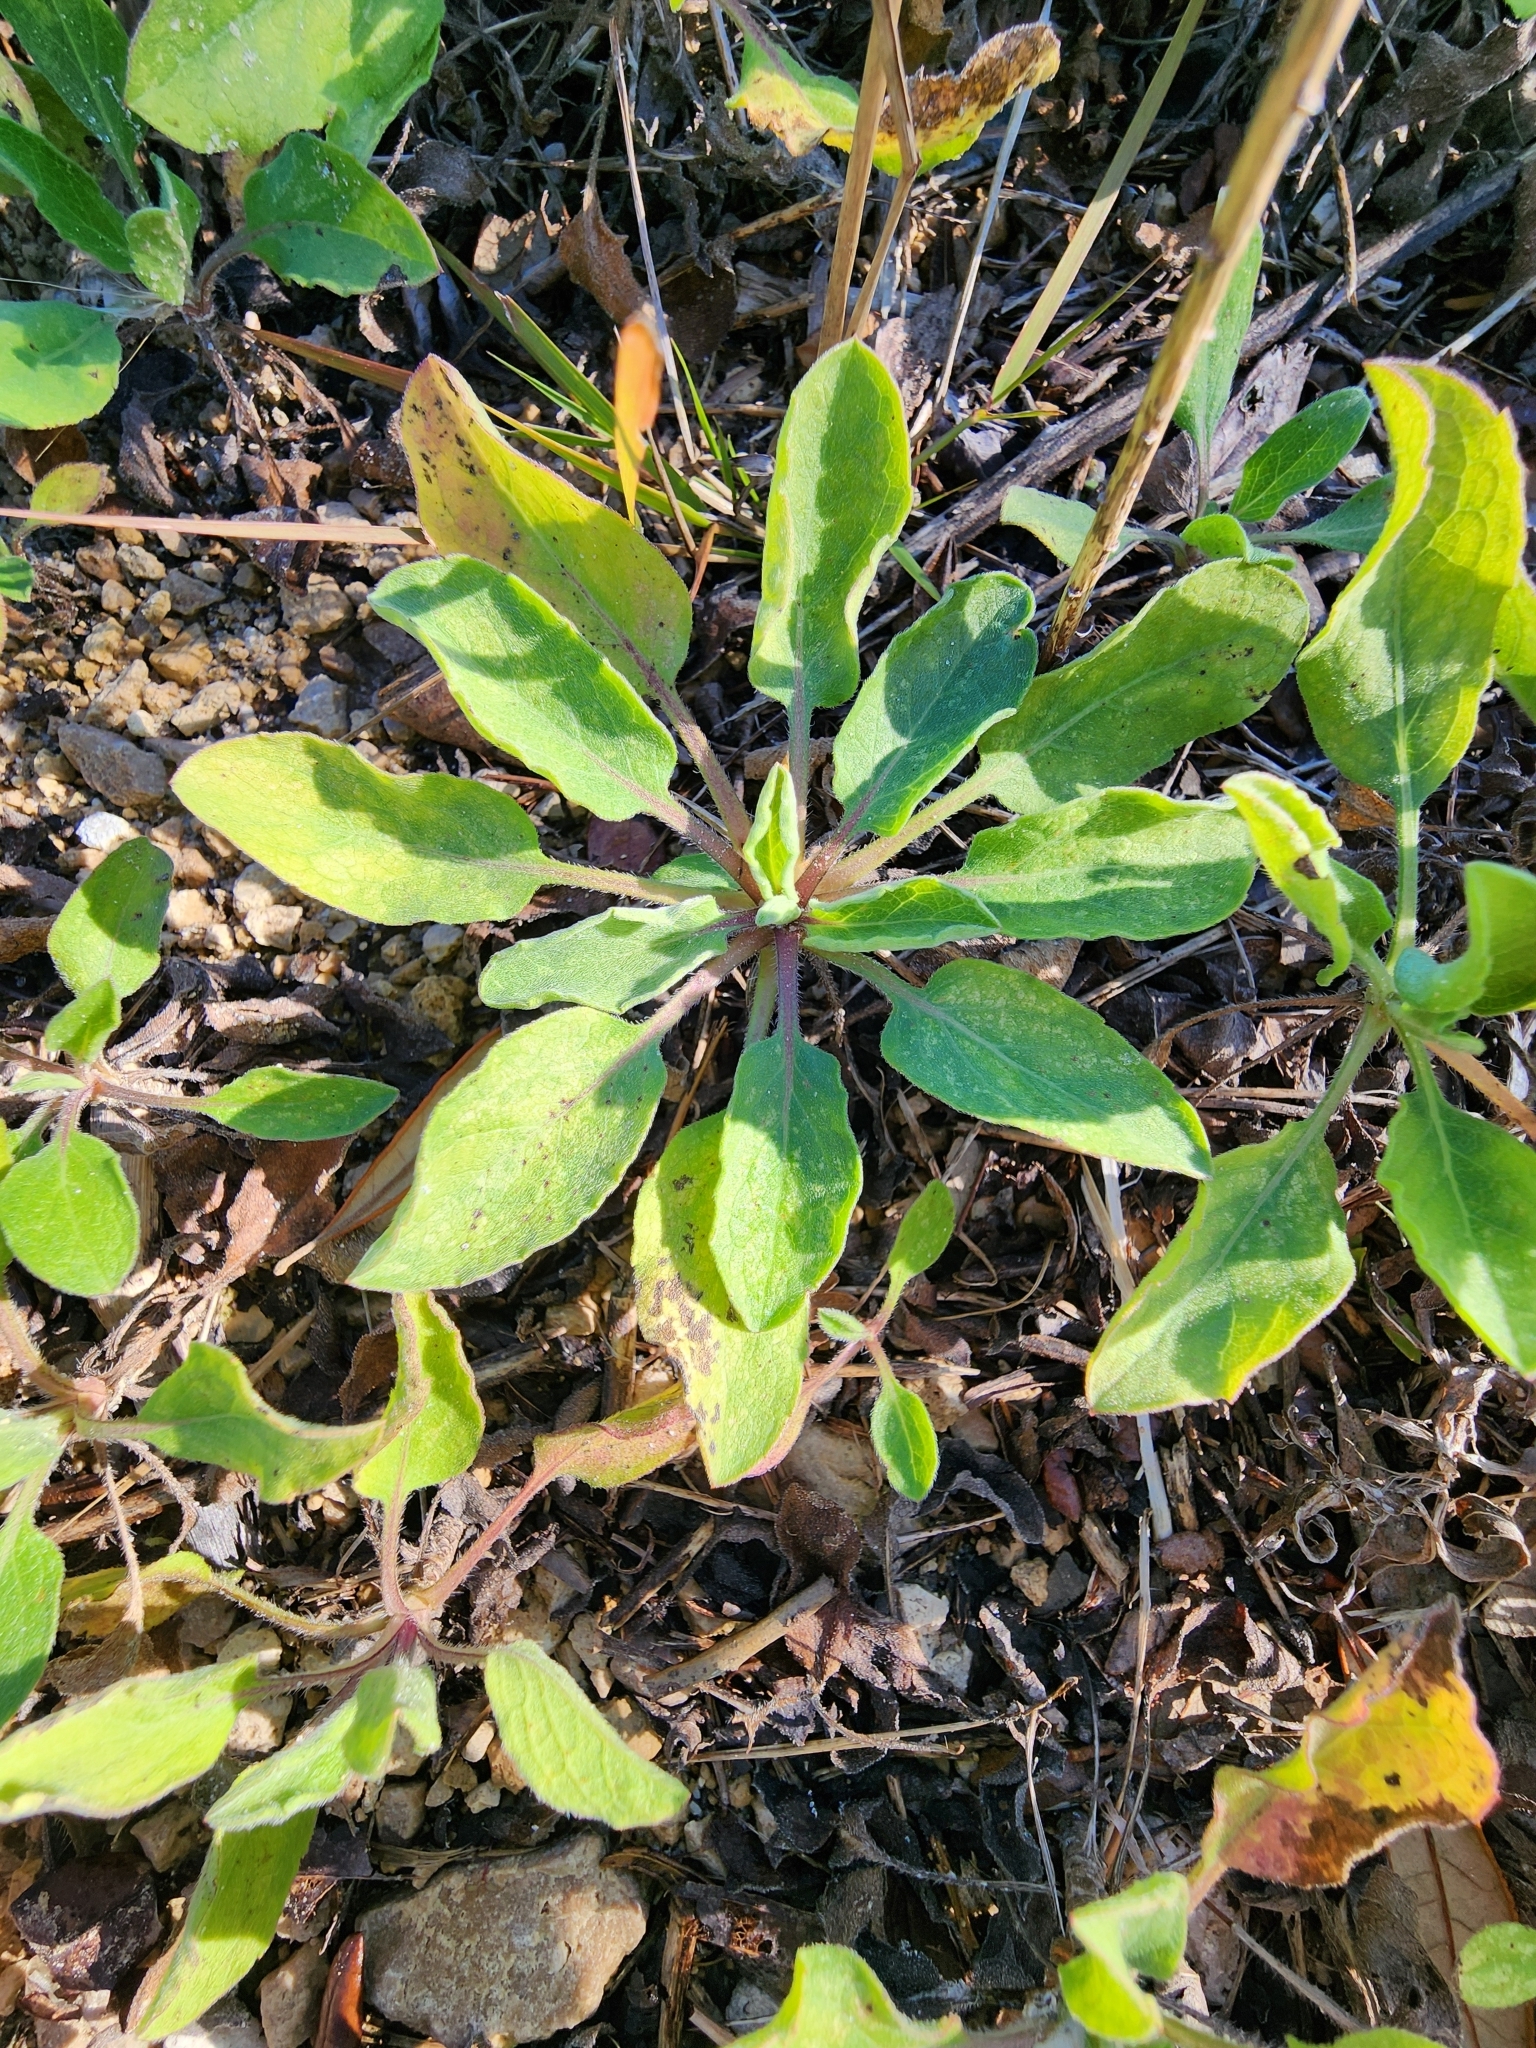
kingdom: Plantae
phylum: Tracheophyta
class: Magnoliopsida
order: Asterales
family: Asteraceae
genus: Heterotheca
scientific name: Heterotheca subaxillaris
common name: Camphorweed
